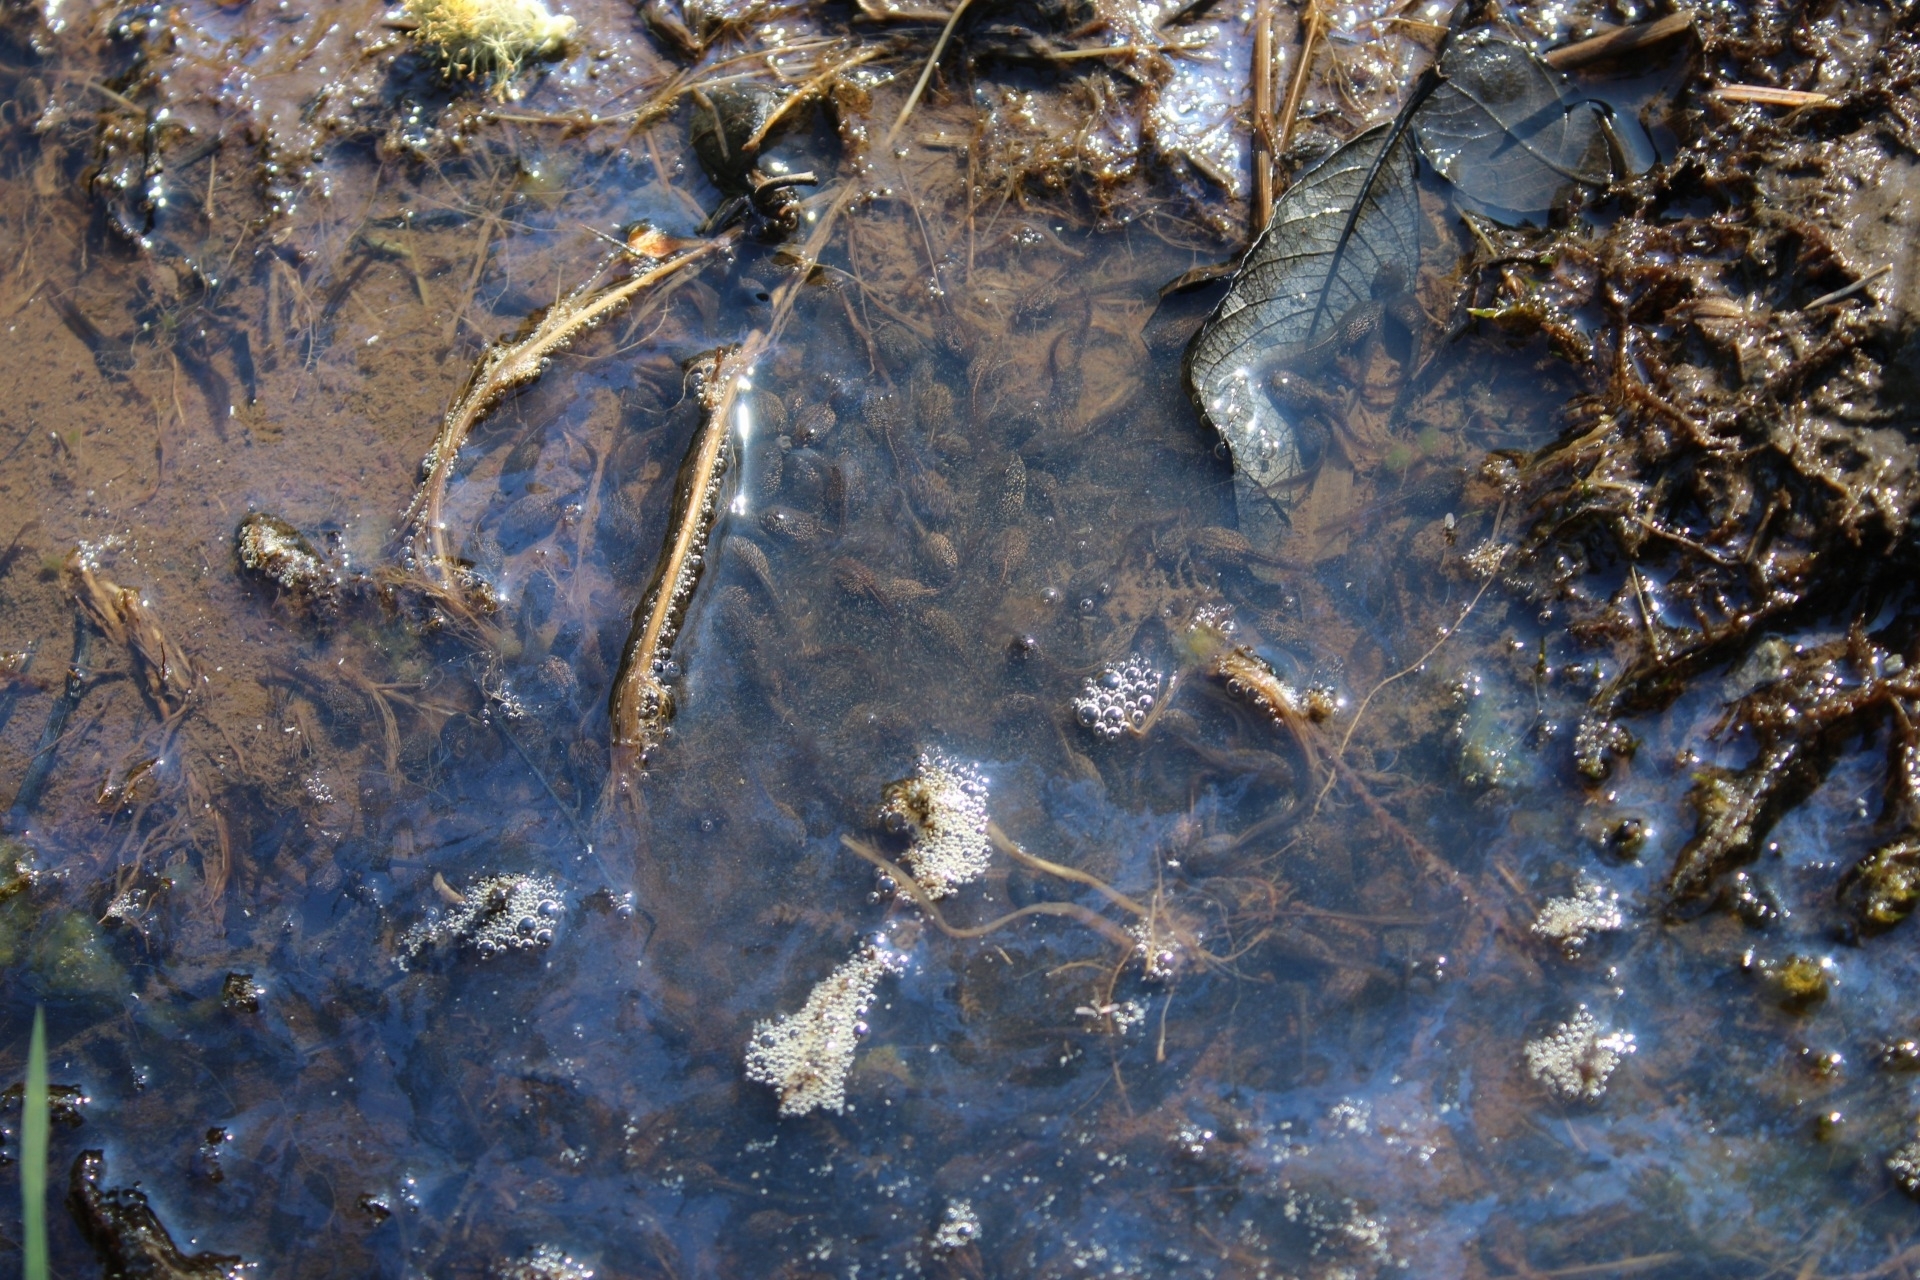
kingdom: Animalia
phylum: Chordata
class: Amphibia
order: Anura
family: Ranidae
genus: Rana
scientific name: Rana temporaria
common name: Common frog
